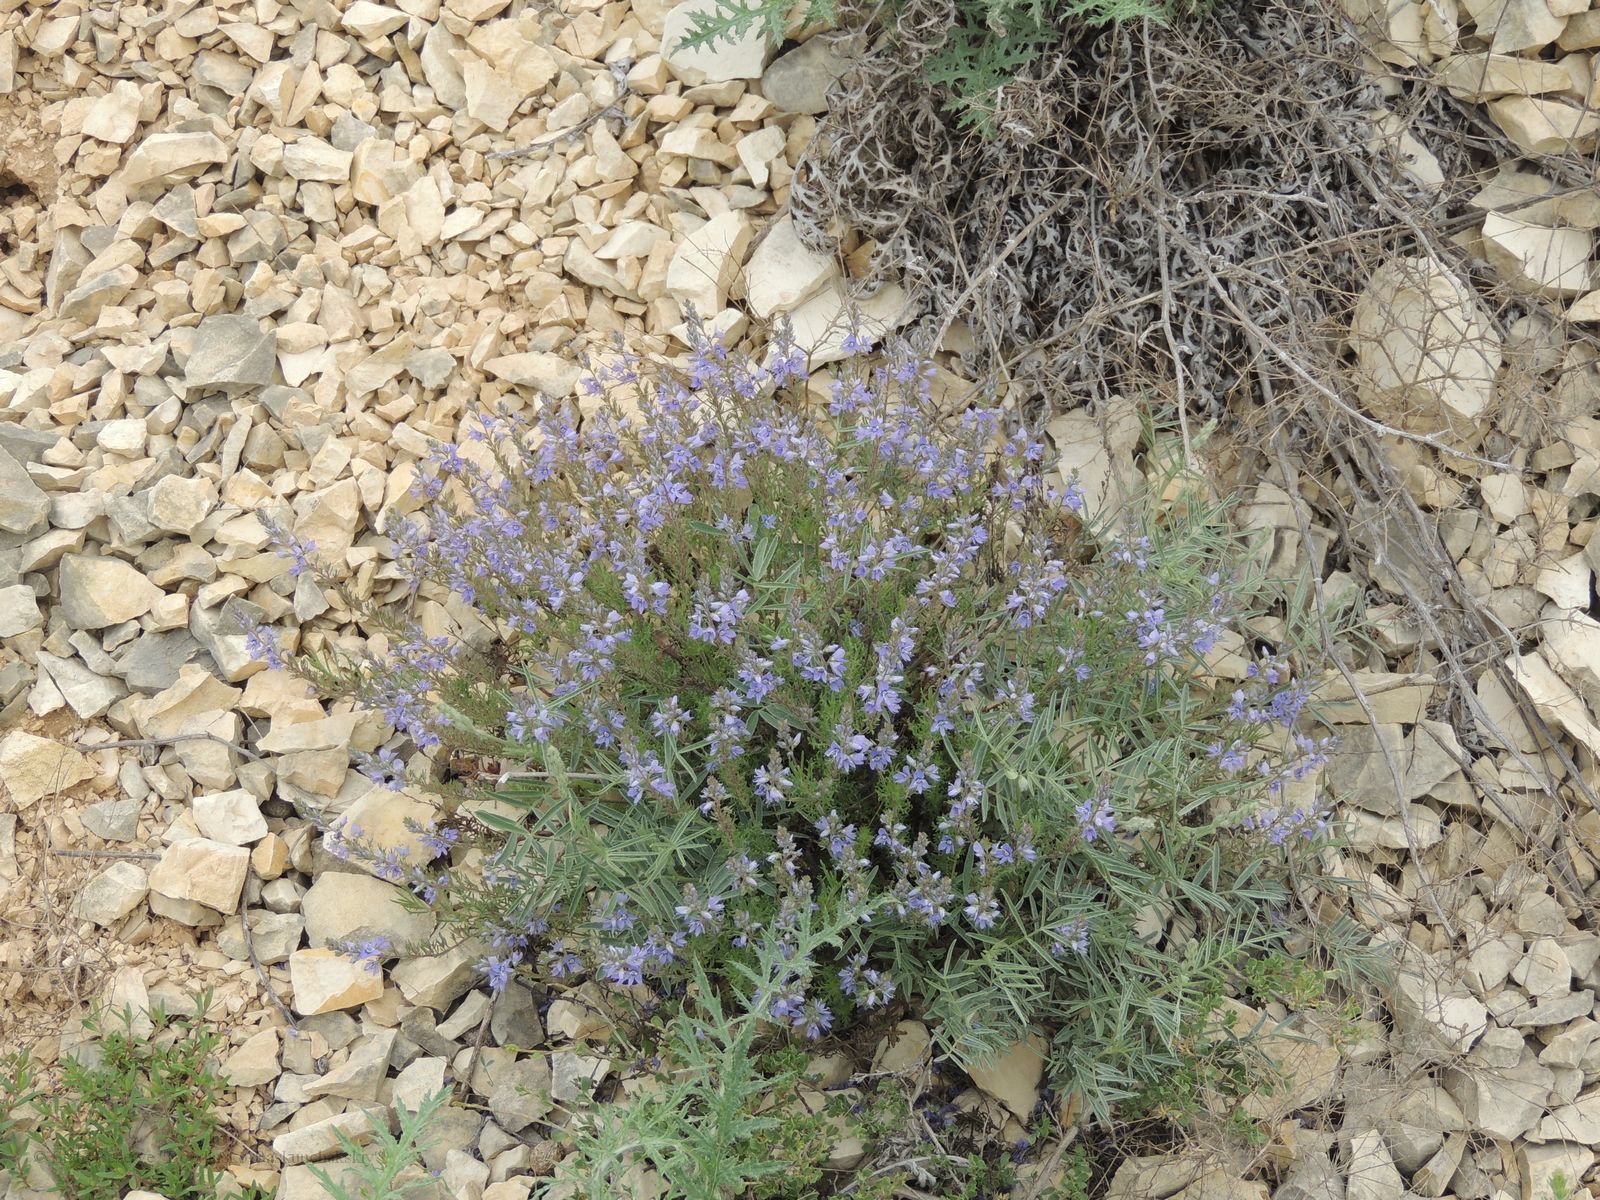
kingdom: Plantae
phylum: Tracheophyta
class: Magnoliopsida
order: Lamiales
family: Plantaginaceae
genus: Veronica
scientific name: Veronica multifida
